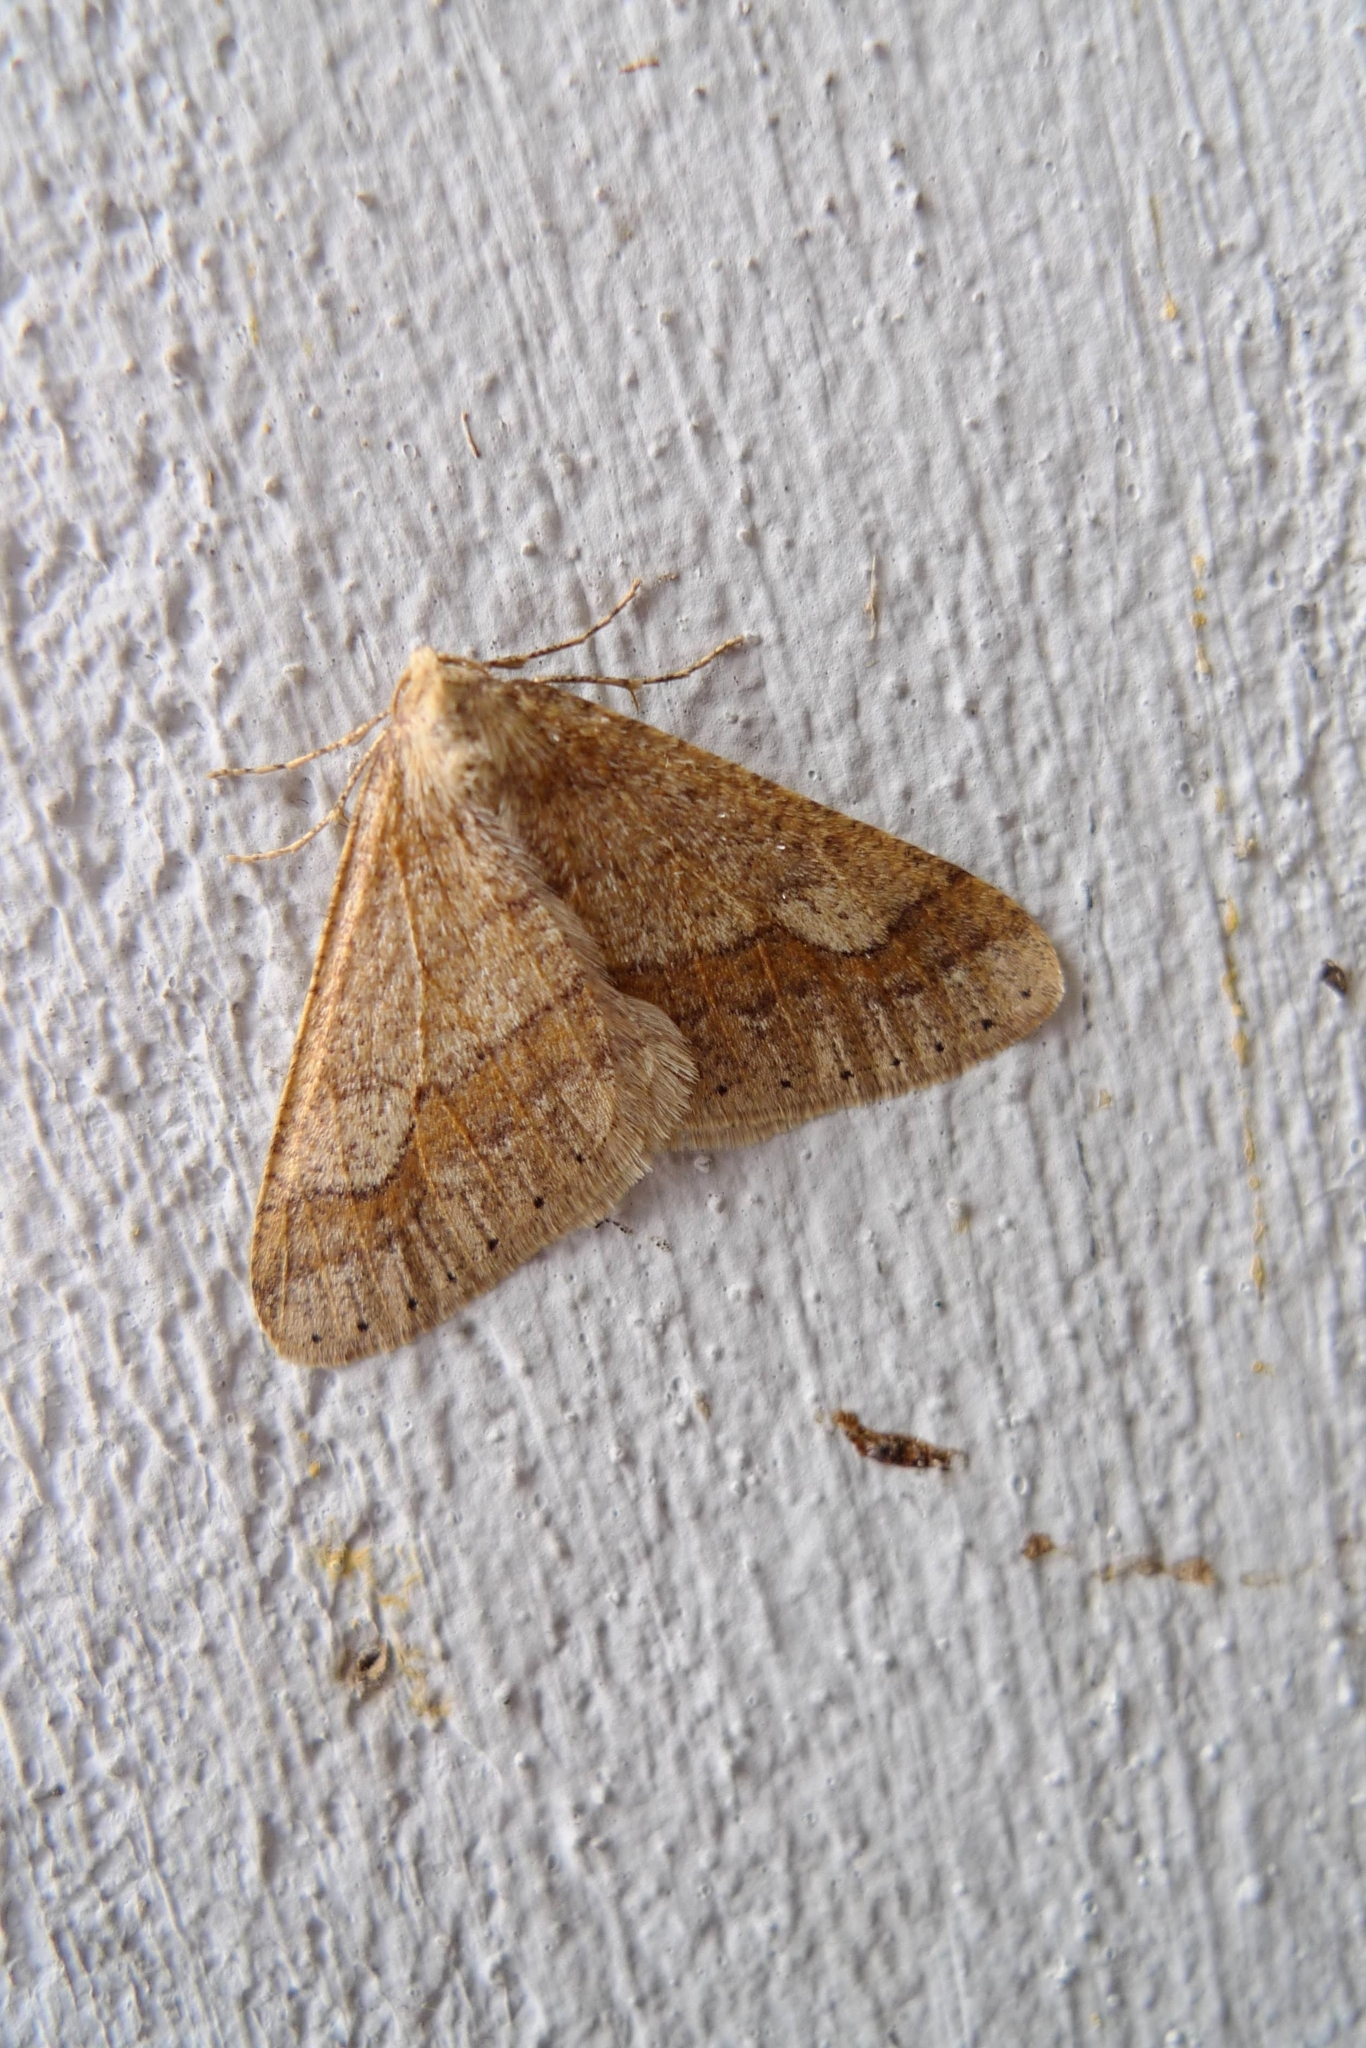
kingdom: Animalia
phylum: Arthropoda
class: Insecta
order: Lepidoptera
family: Geometridae
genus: Agriopis
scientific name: Agriopis marginaria
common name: Dotted border
